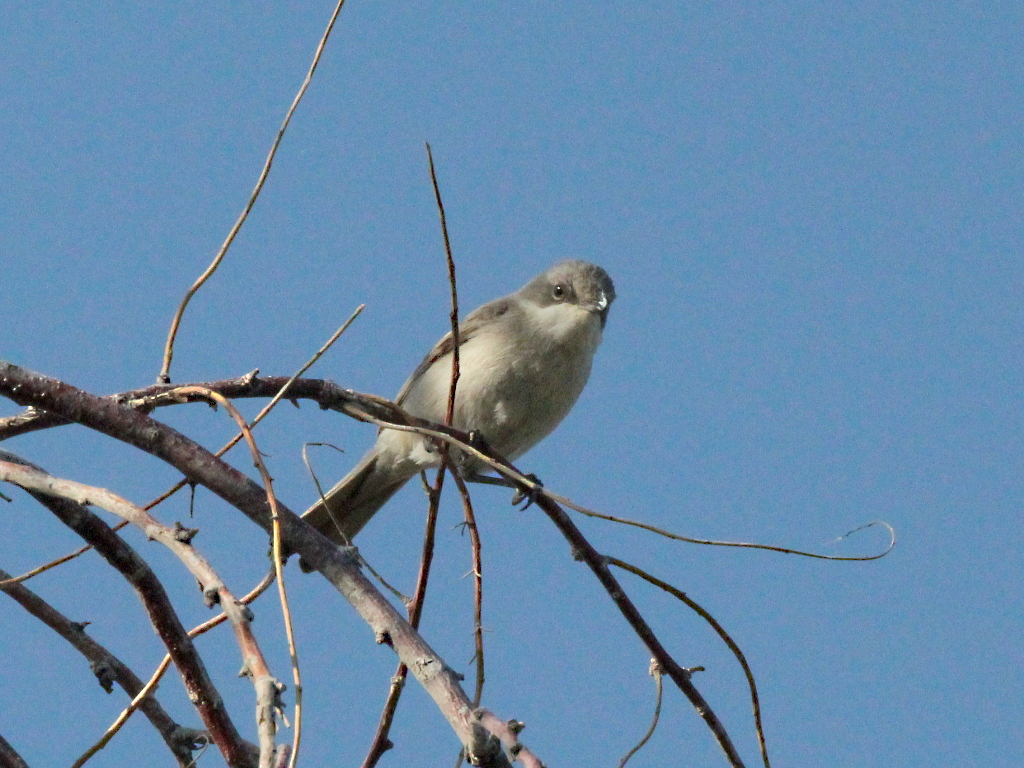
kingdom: Animalia
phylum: Chordata
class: Aves
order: Passeriformes
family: Sylviidae
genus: Sylvia
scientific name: Sylvia curruca
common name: Lesser whitethroat
